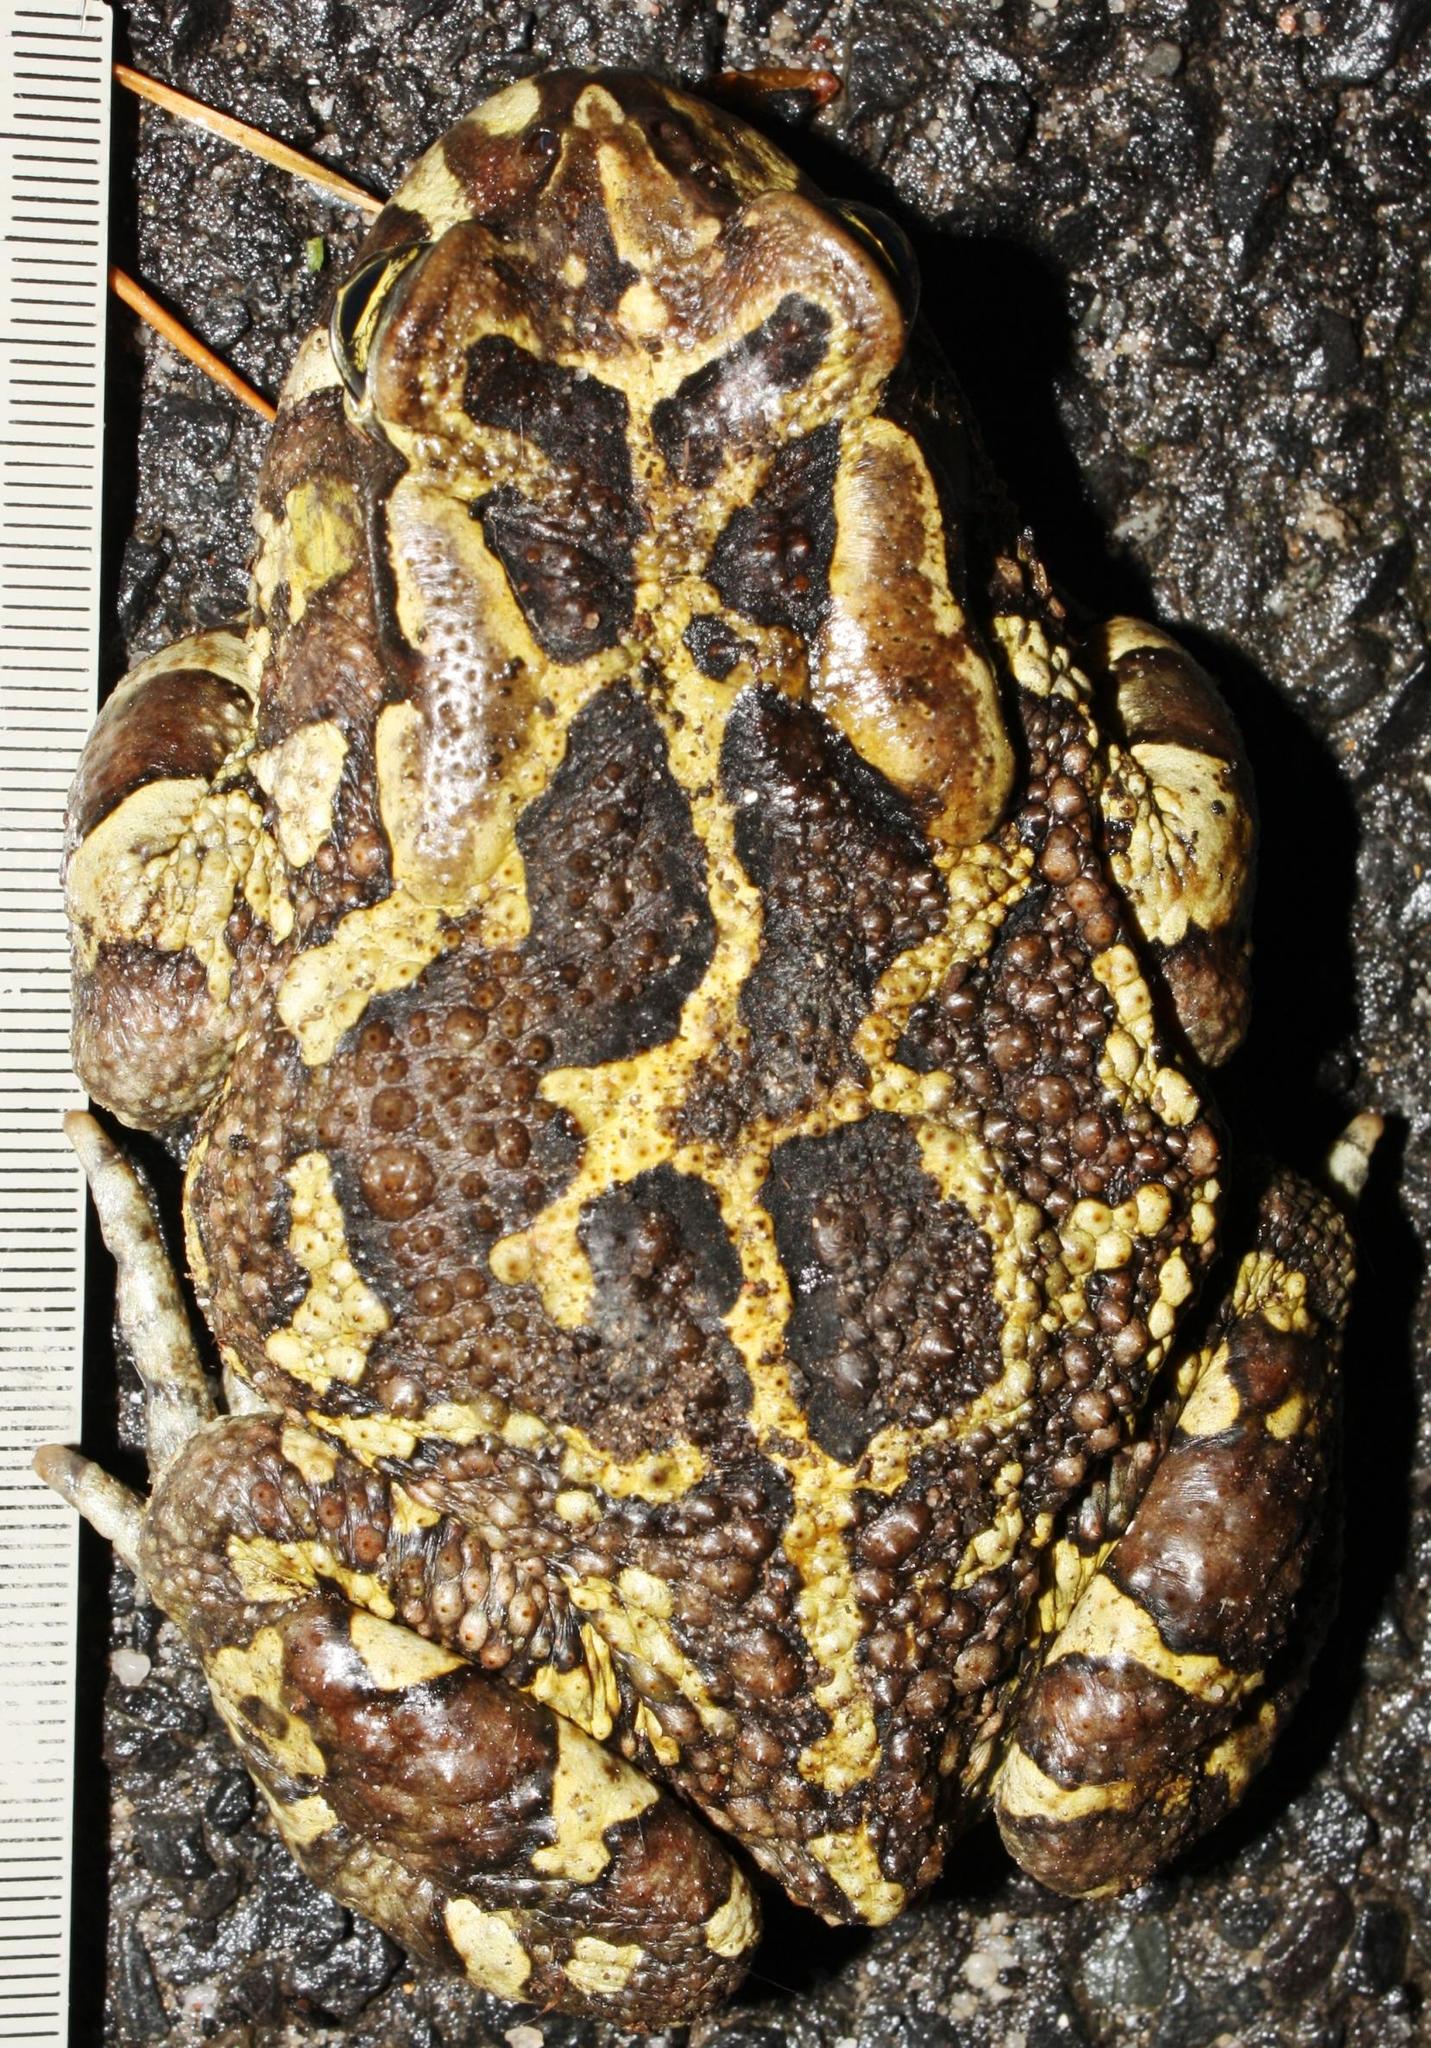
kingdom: Animalia
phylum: Chordata
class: Amphibia
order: Anura
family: Bufonidae
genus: Sclerophrys
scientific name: Sclerophrys pantherina
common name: Panther toad
